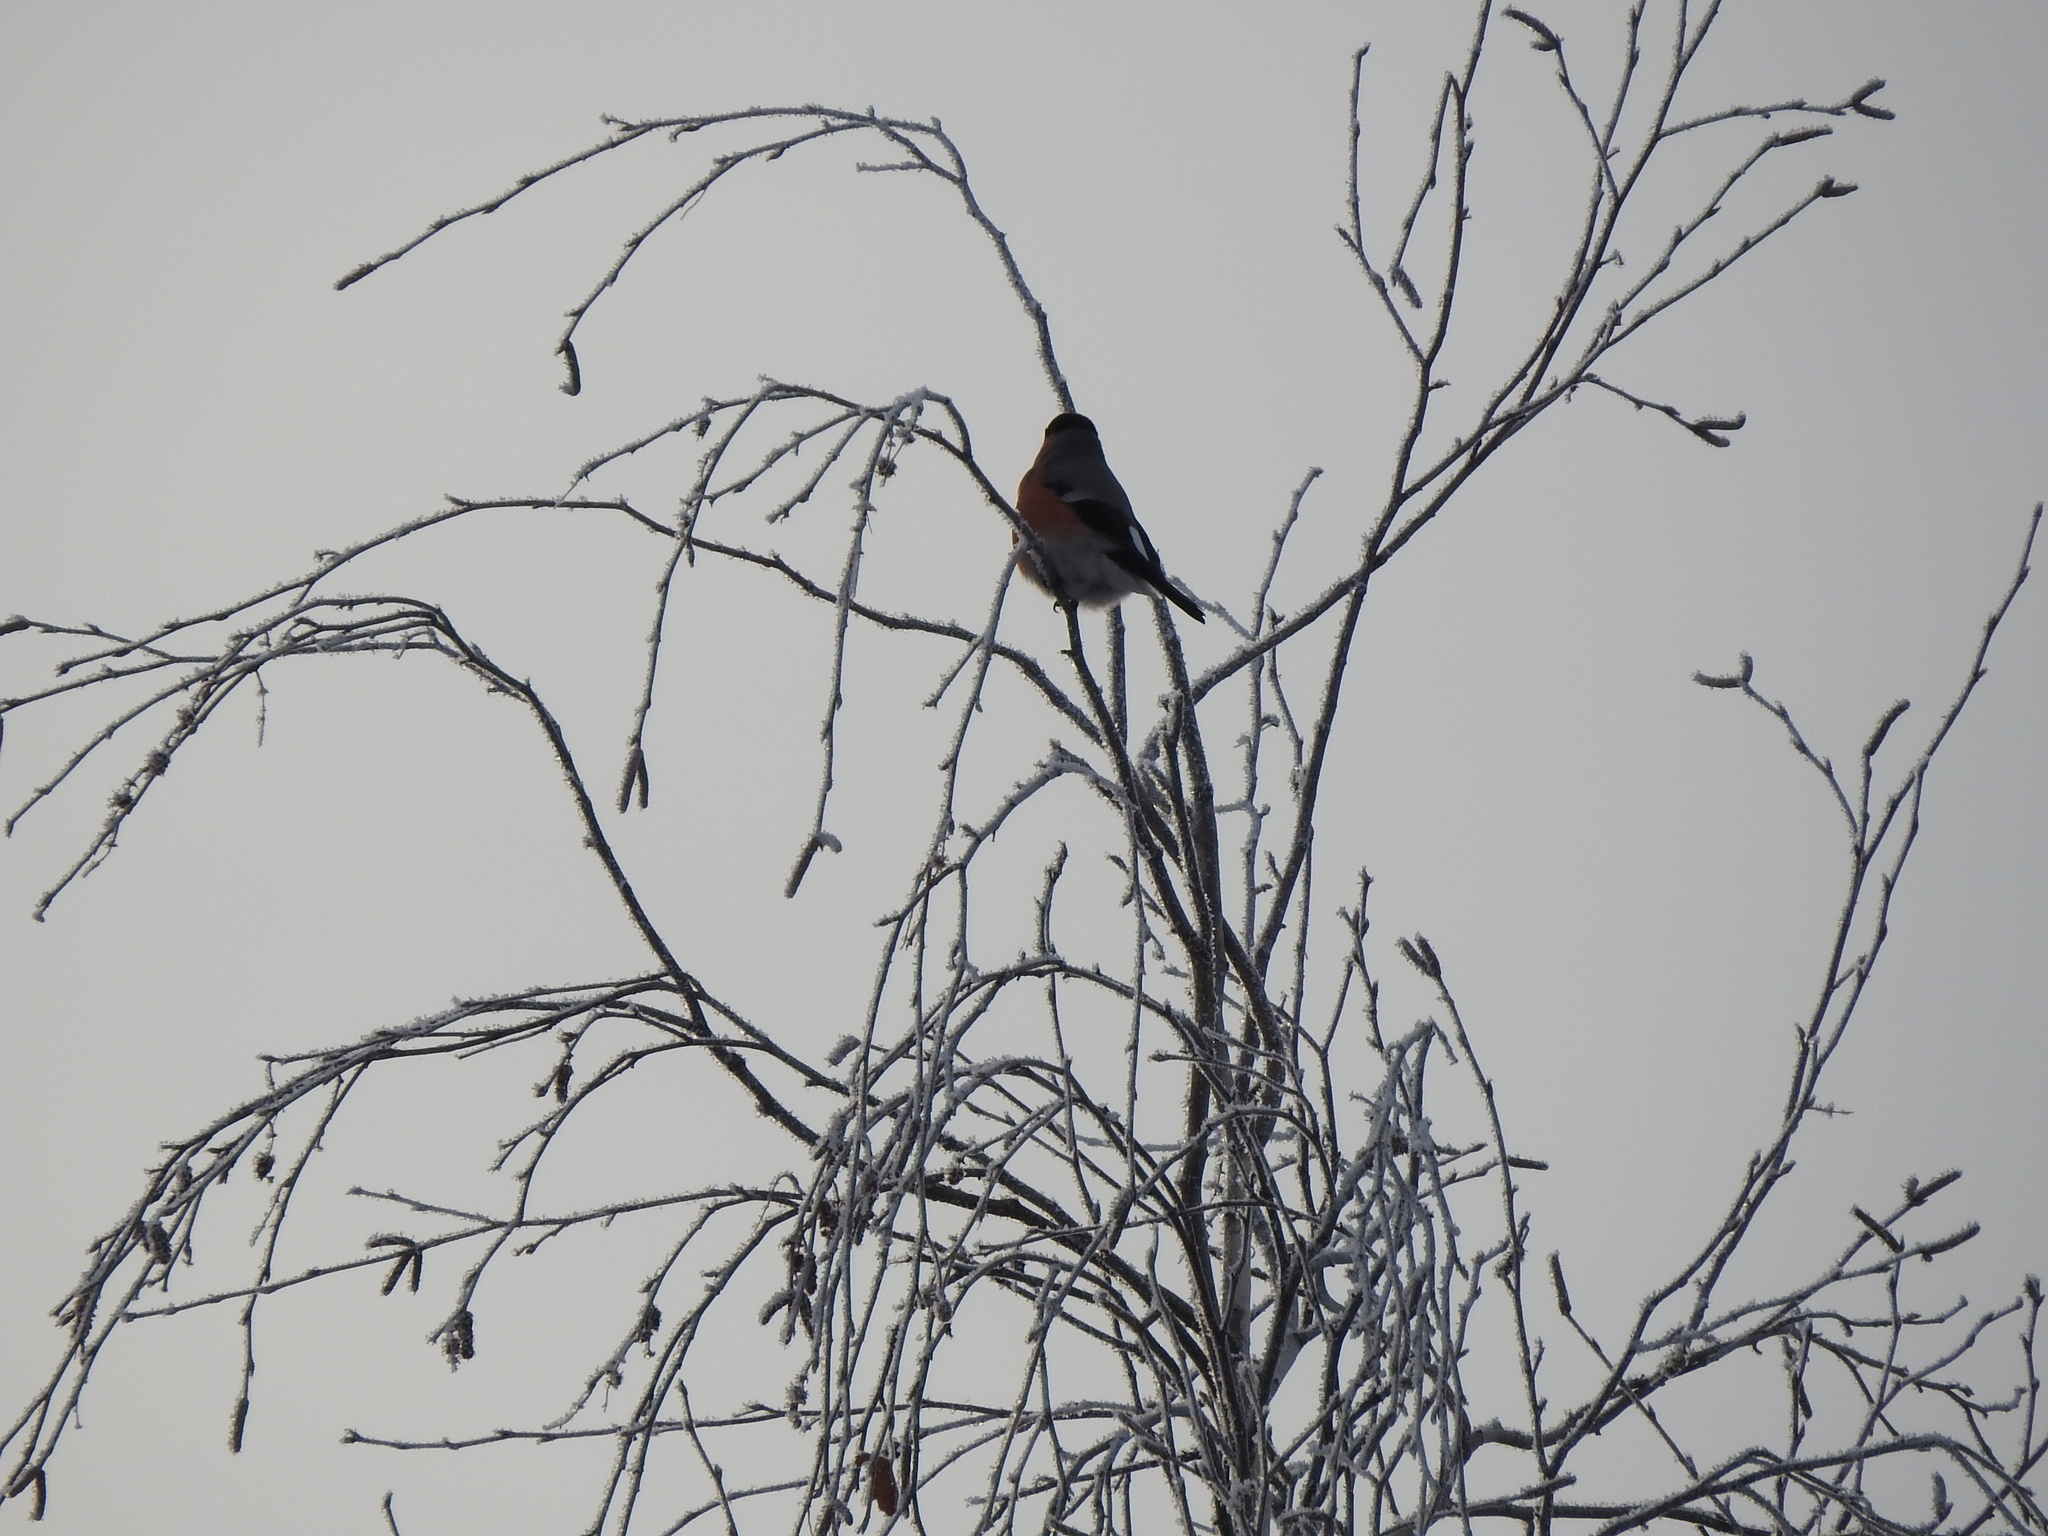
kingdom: Animalia
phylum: Chordata
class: Aves
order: Passeriformes
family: Fringillidae
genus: Pyrrhula
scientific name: Pyrrhula pyrrhula
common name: Eurasian bullfinch
